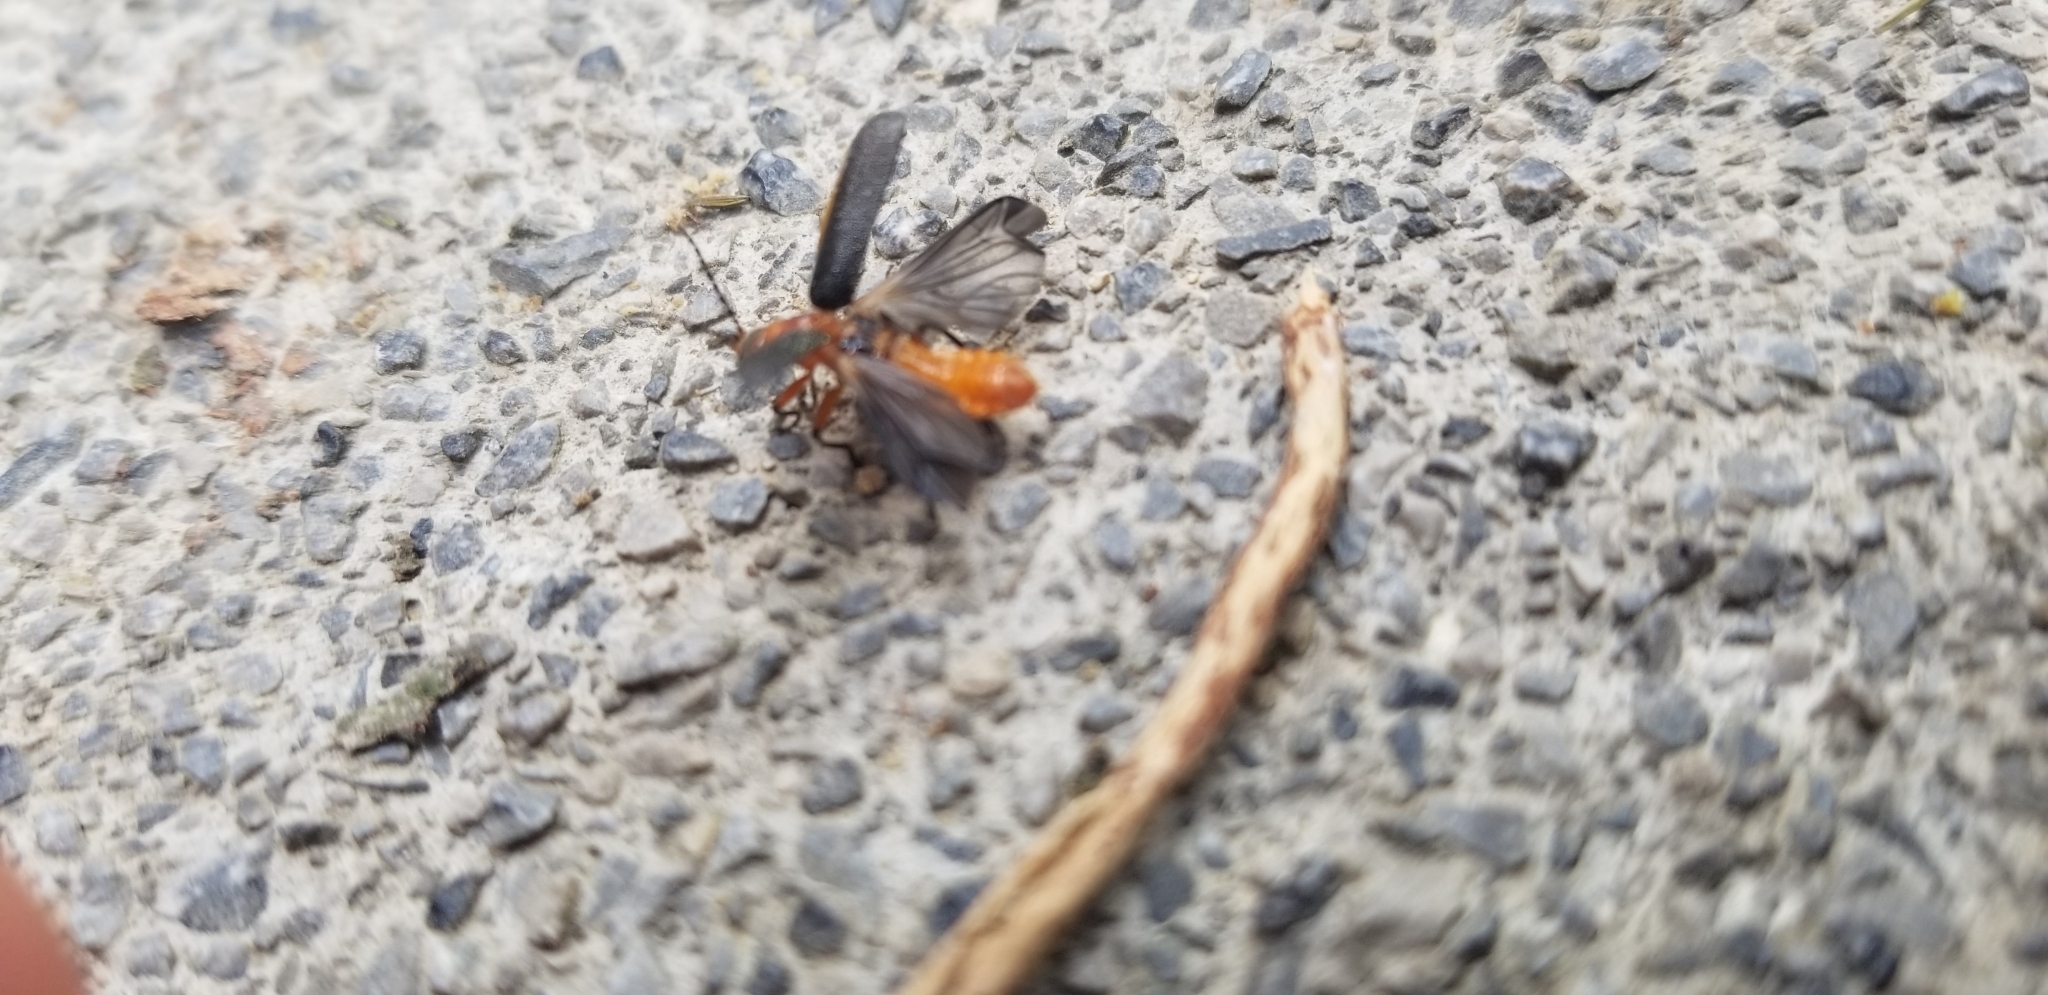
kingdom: Animalia
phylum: Arthropoda
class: Insecta
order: Coleoptera
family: Cantharidae
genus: Atalantycha
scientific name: Atalantycha bilineata
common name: Two-lined leatherwing
